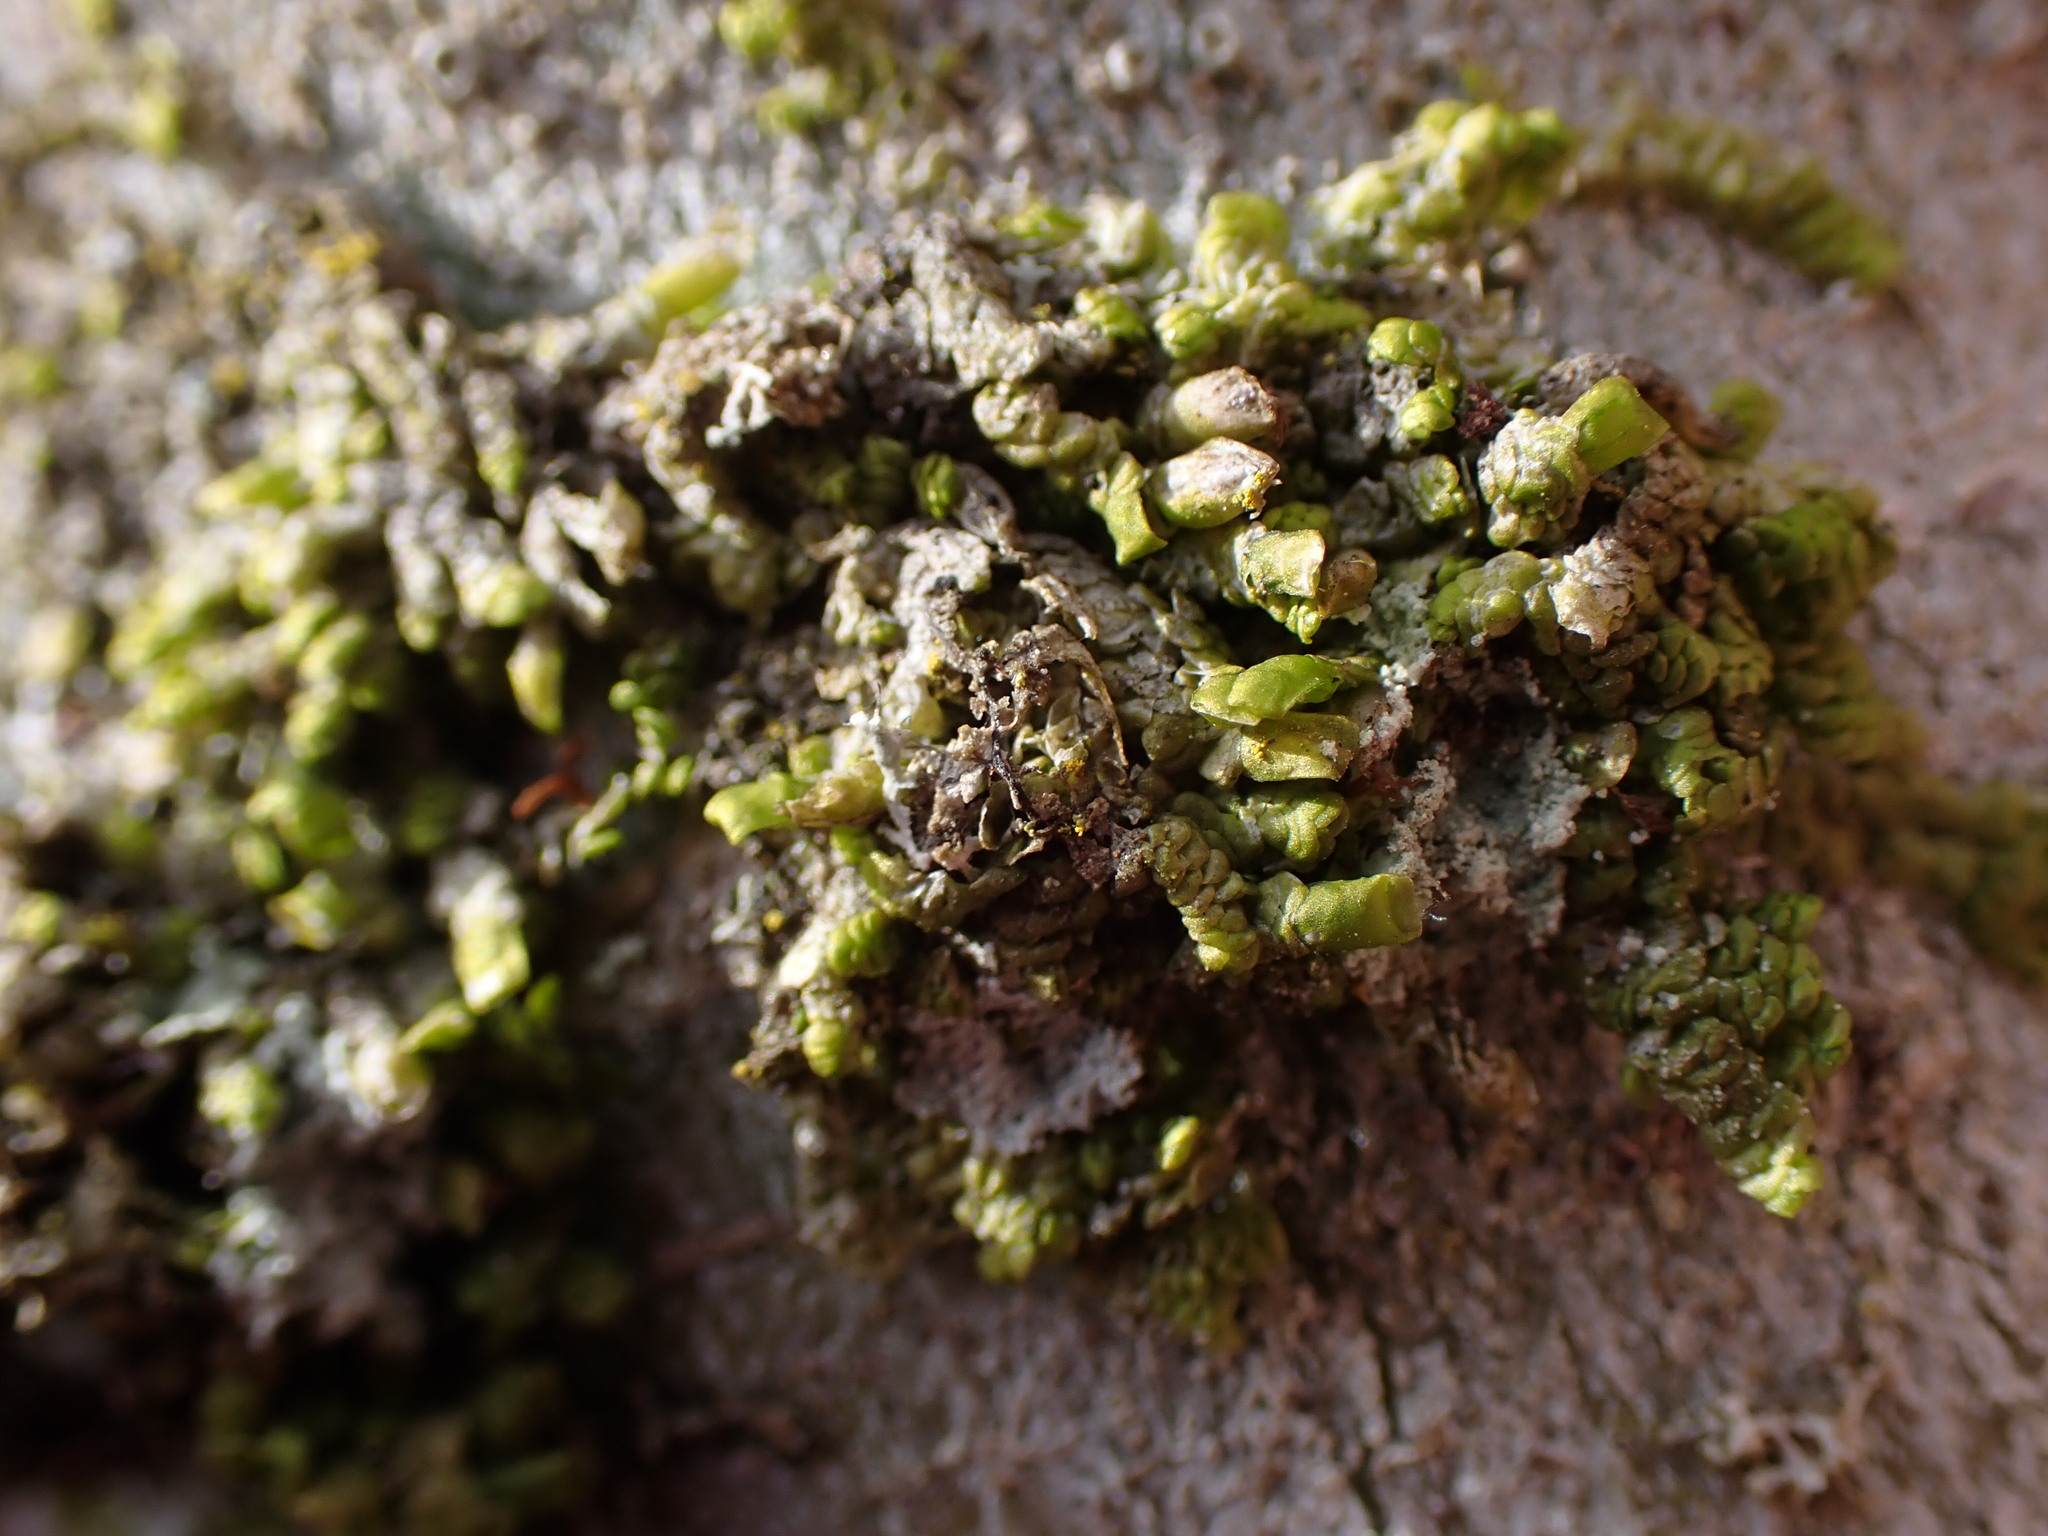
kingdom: Plantae
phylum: Marchantiophyta
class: Jungermanniopsida
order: Porellales
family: Radulaceae
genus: Radula
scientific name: Radula complanata
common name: Flat-leaved scalewort
